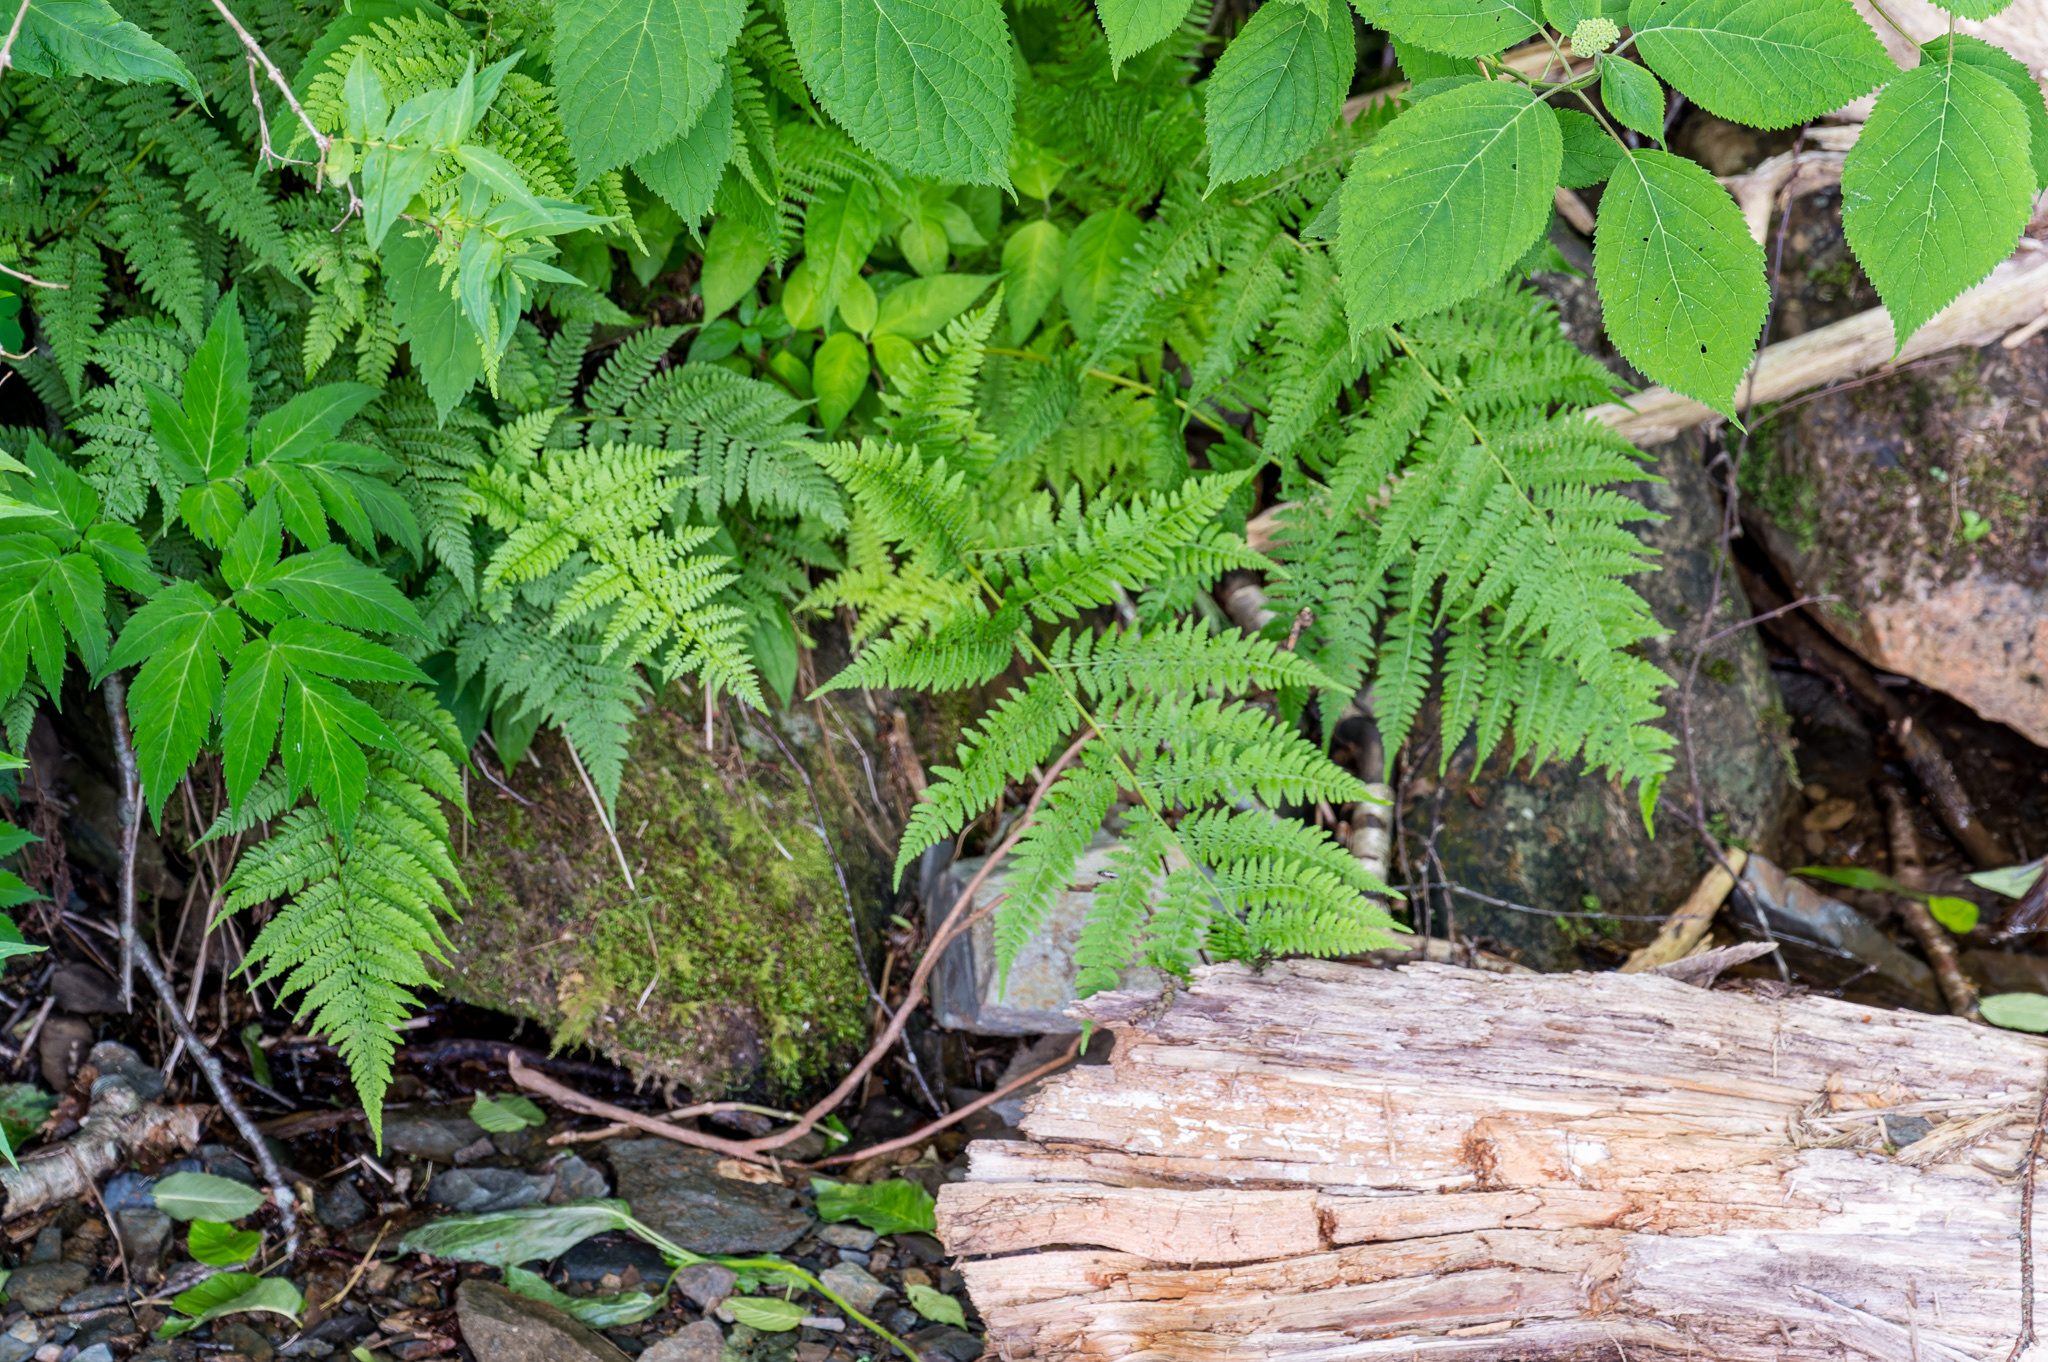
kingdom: Plantae
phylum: Tracheophyta
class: Polypodiopsida
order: Polypodiales
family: Athyriaceae
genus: Athyrium
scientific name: Athyrium asplenioides
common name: Southern lady fern
